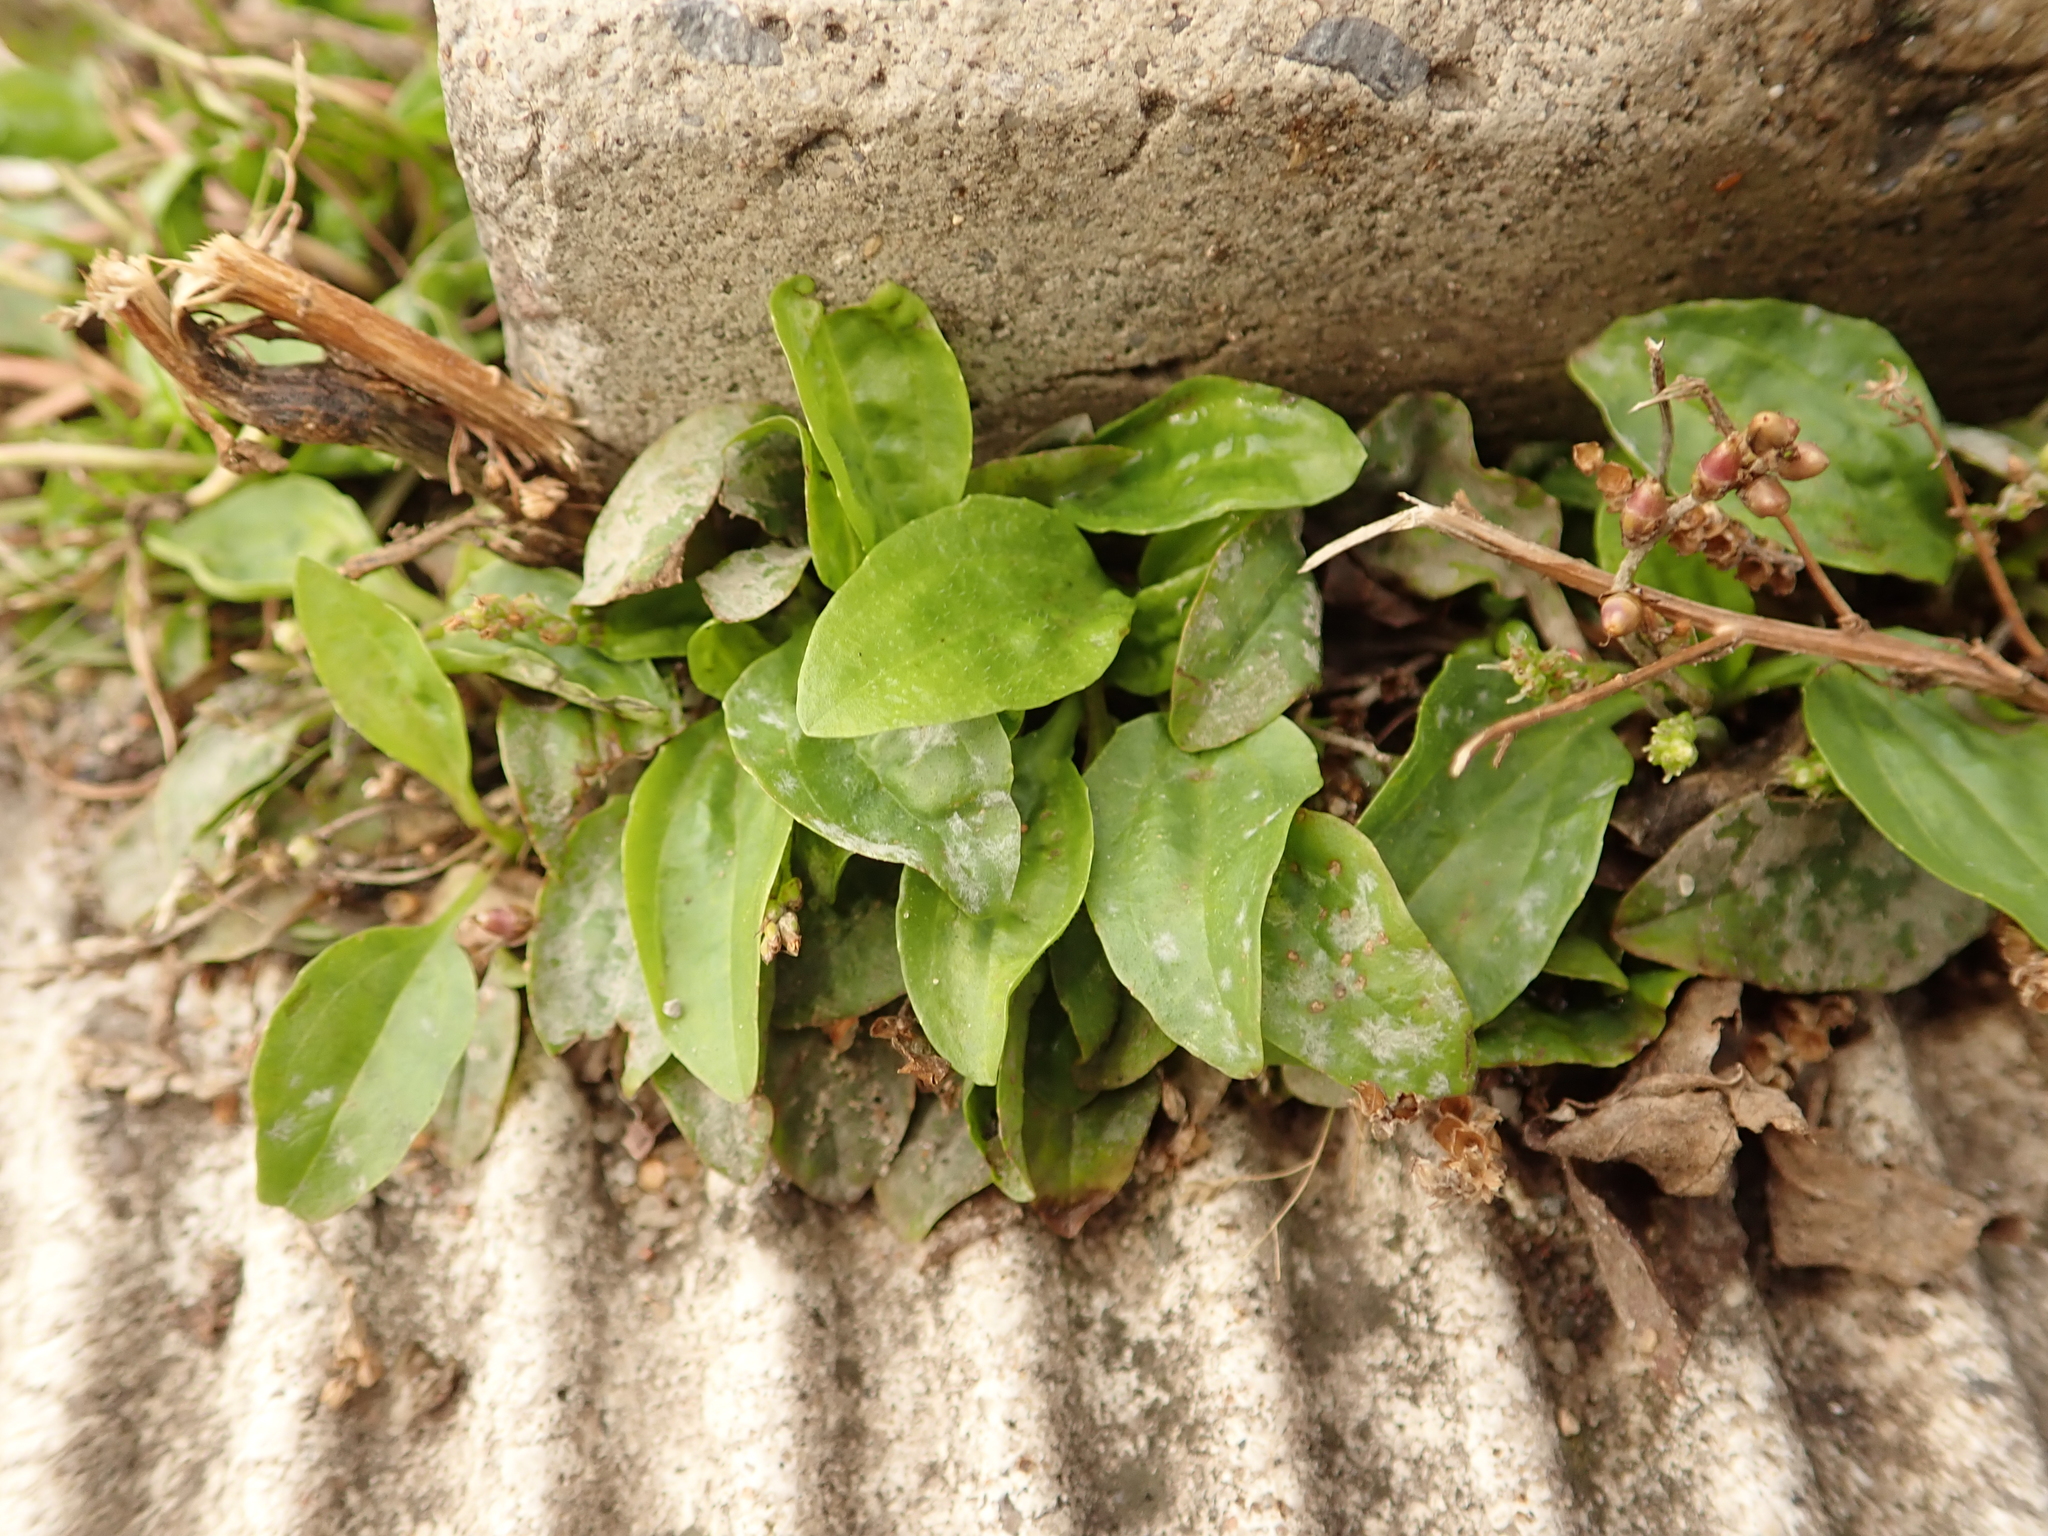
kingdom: Plantae
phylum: Tracheophyta
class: Magnoliopsida
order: Lamiales
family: Plantaginaceae
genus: Plantago
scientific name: Plantago major
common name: Common plantain
